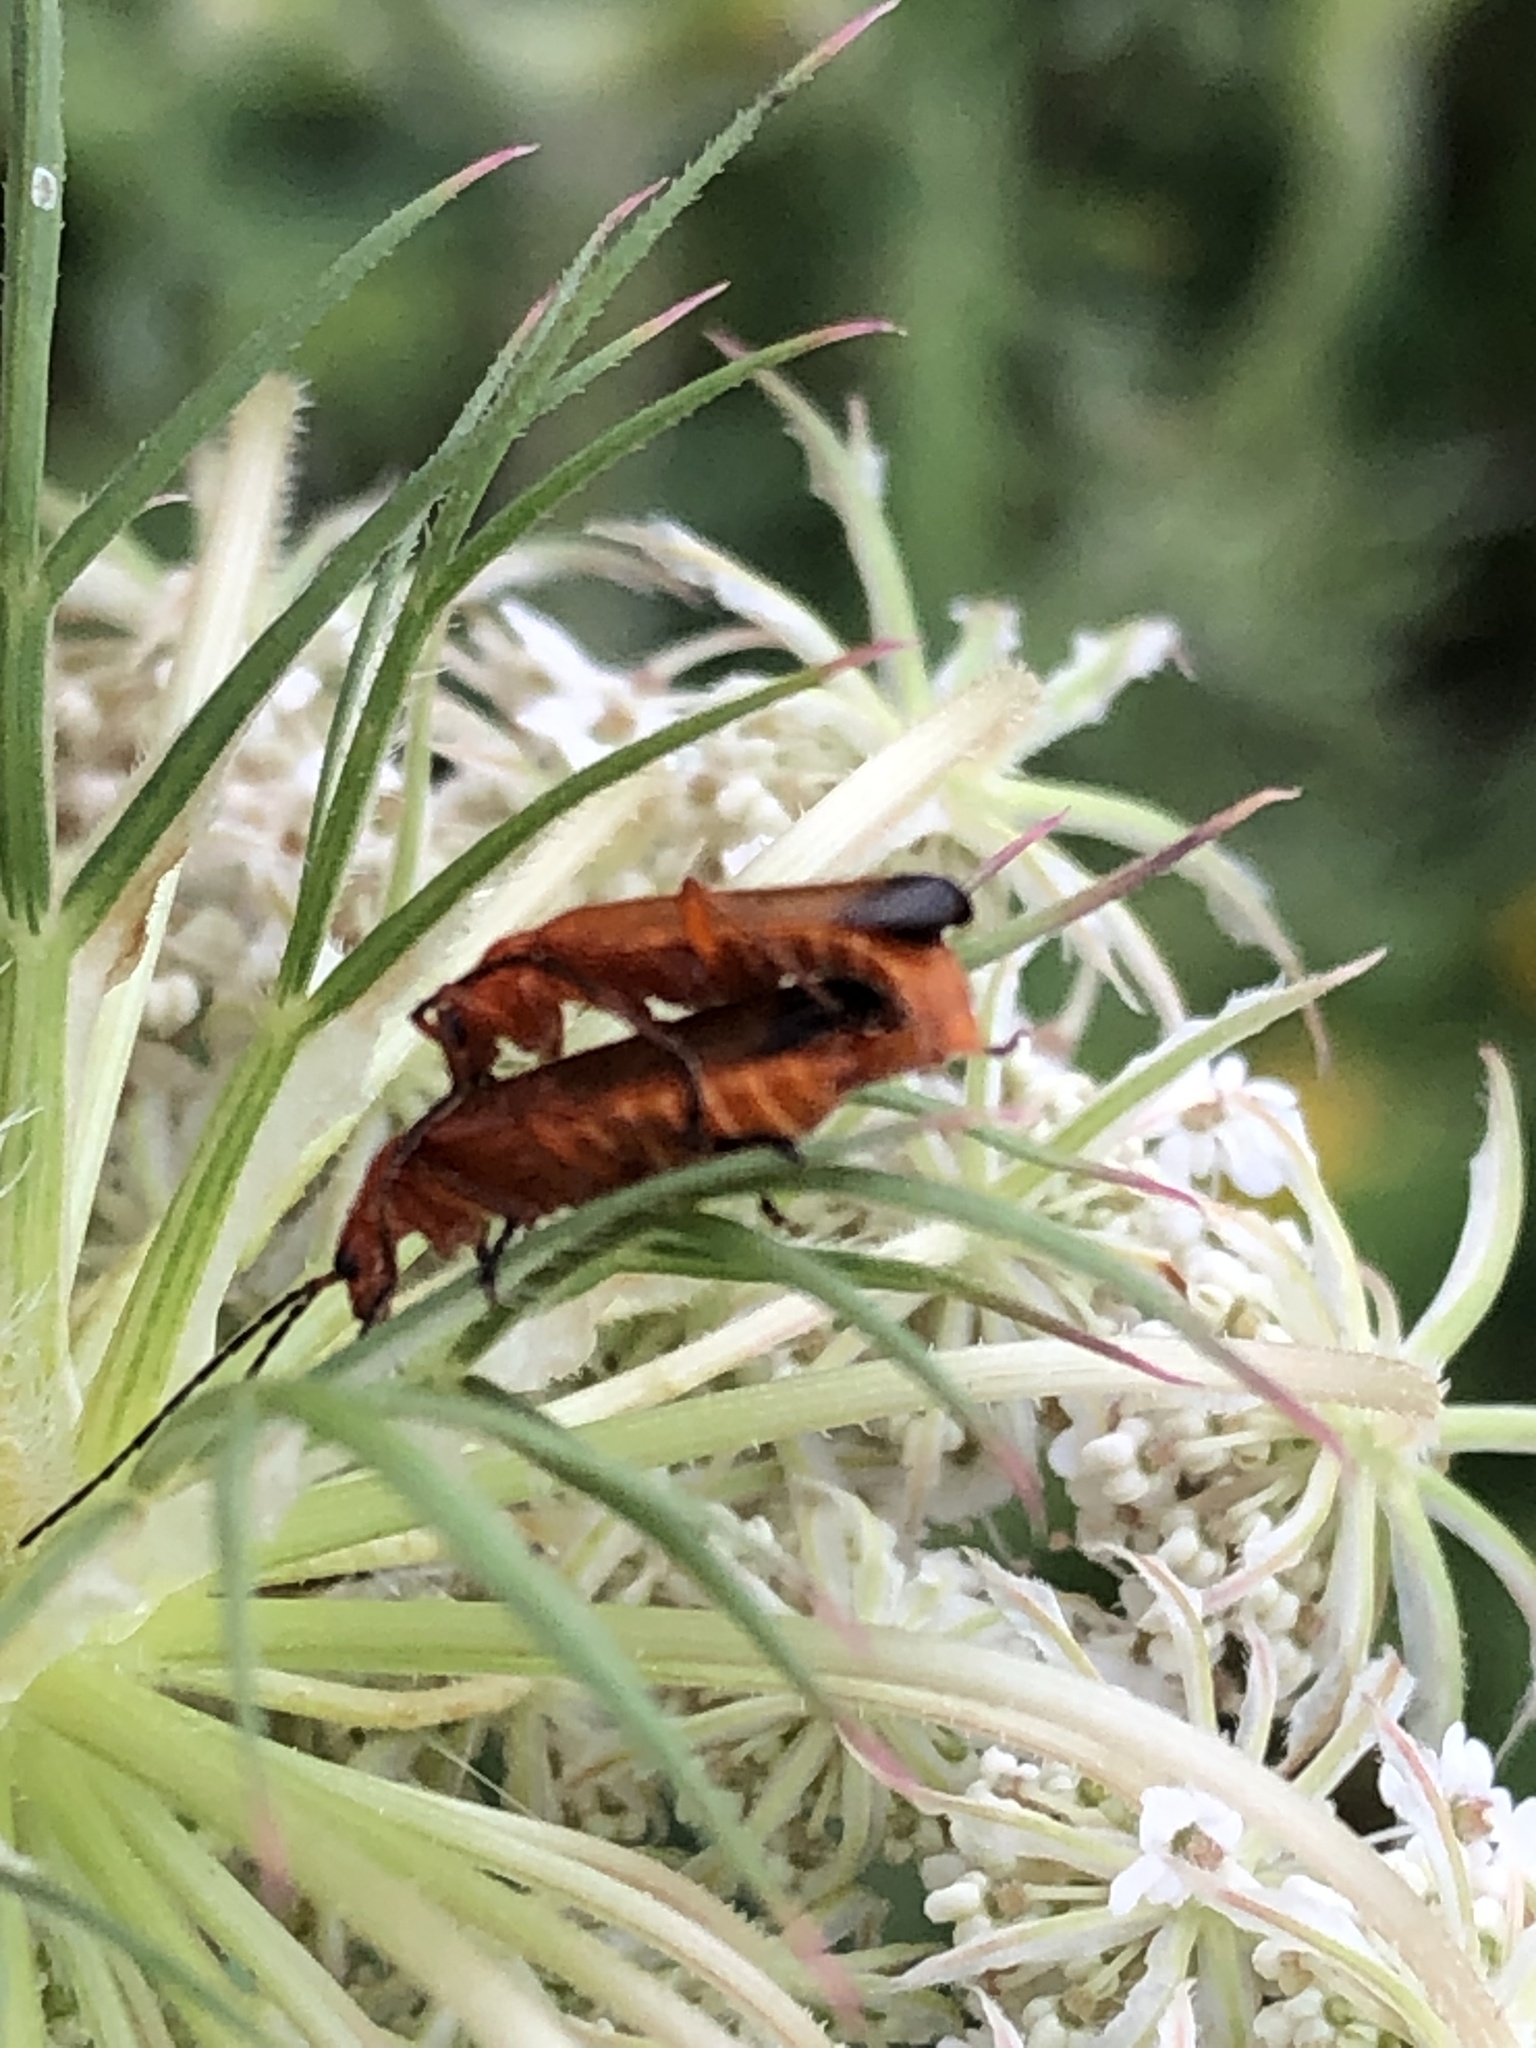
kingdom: Animalia
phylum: Arthropoda
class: Insecta
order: Coleoptera
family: Cantharidae
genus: Rhagonycha
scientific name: Rhagonycha fulva
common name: Common red soldier beetle
